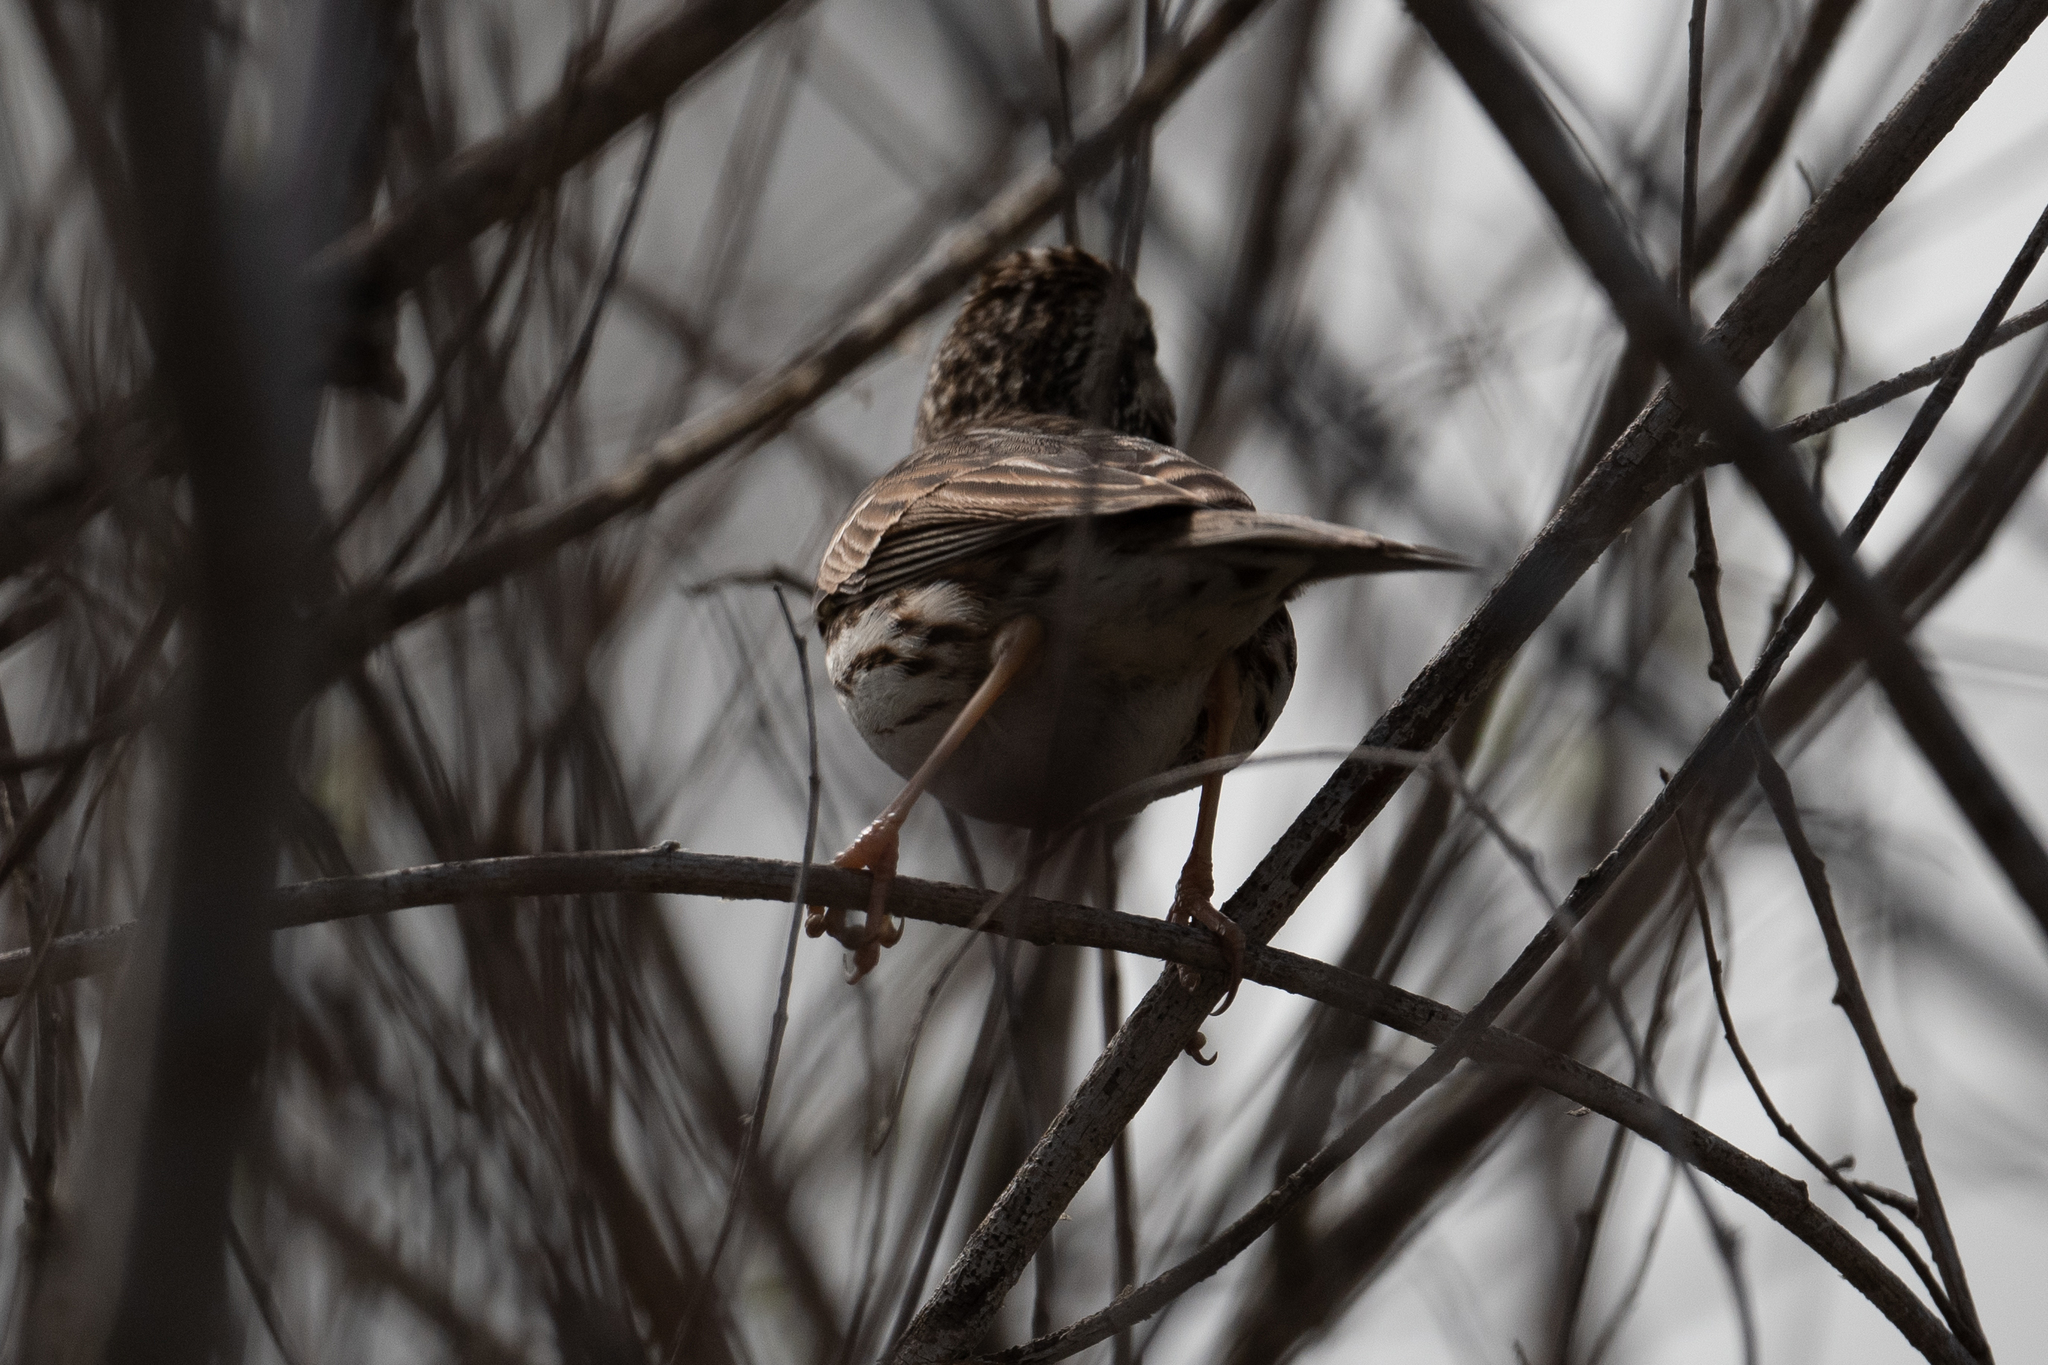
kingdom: Animalia
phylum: Chordata
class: Aves
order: Passeriformes
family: Passerellidae
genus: Passerculus
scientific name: Passerculus sandwichensis
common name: Savannah sparrow
